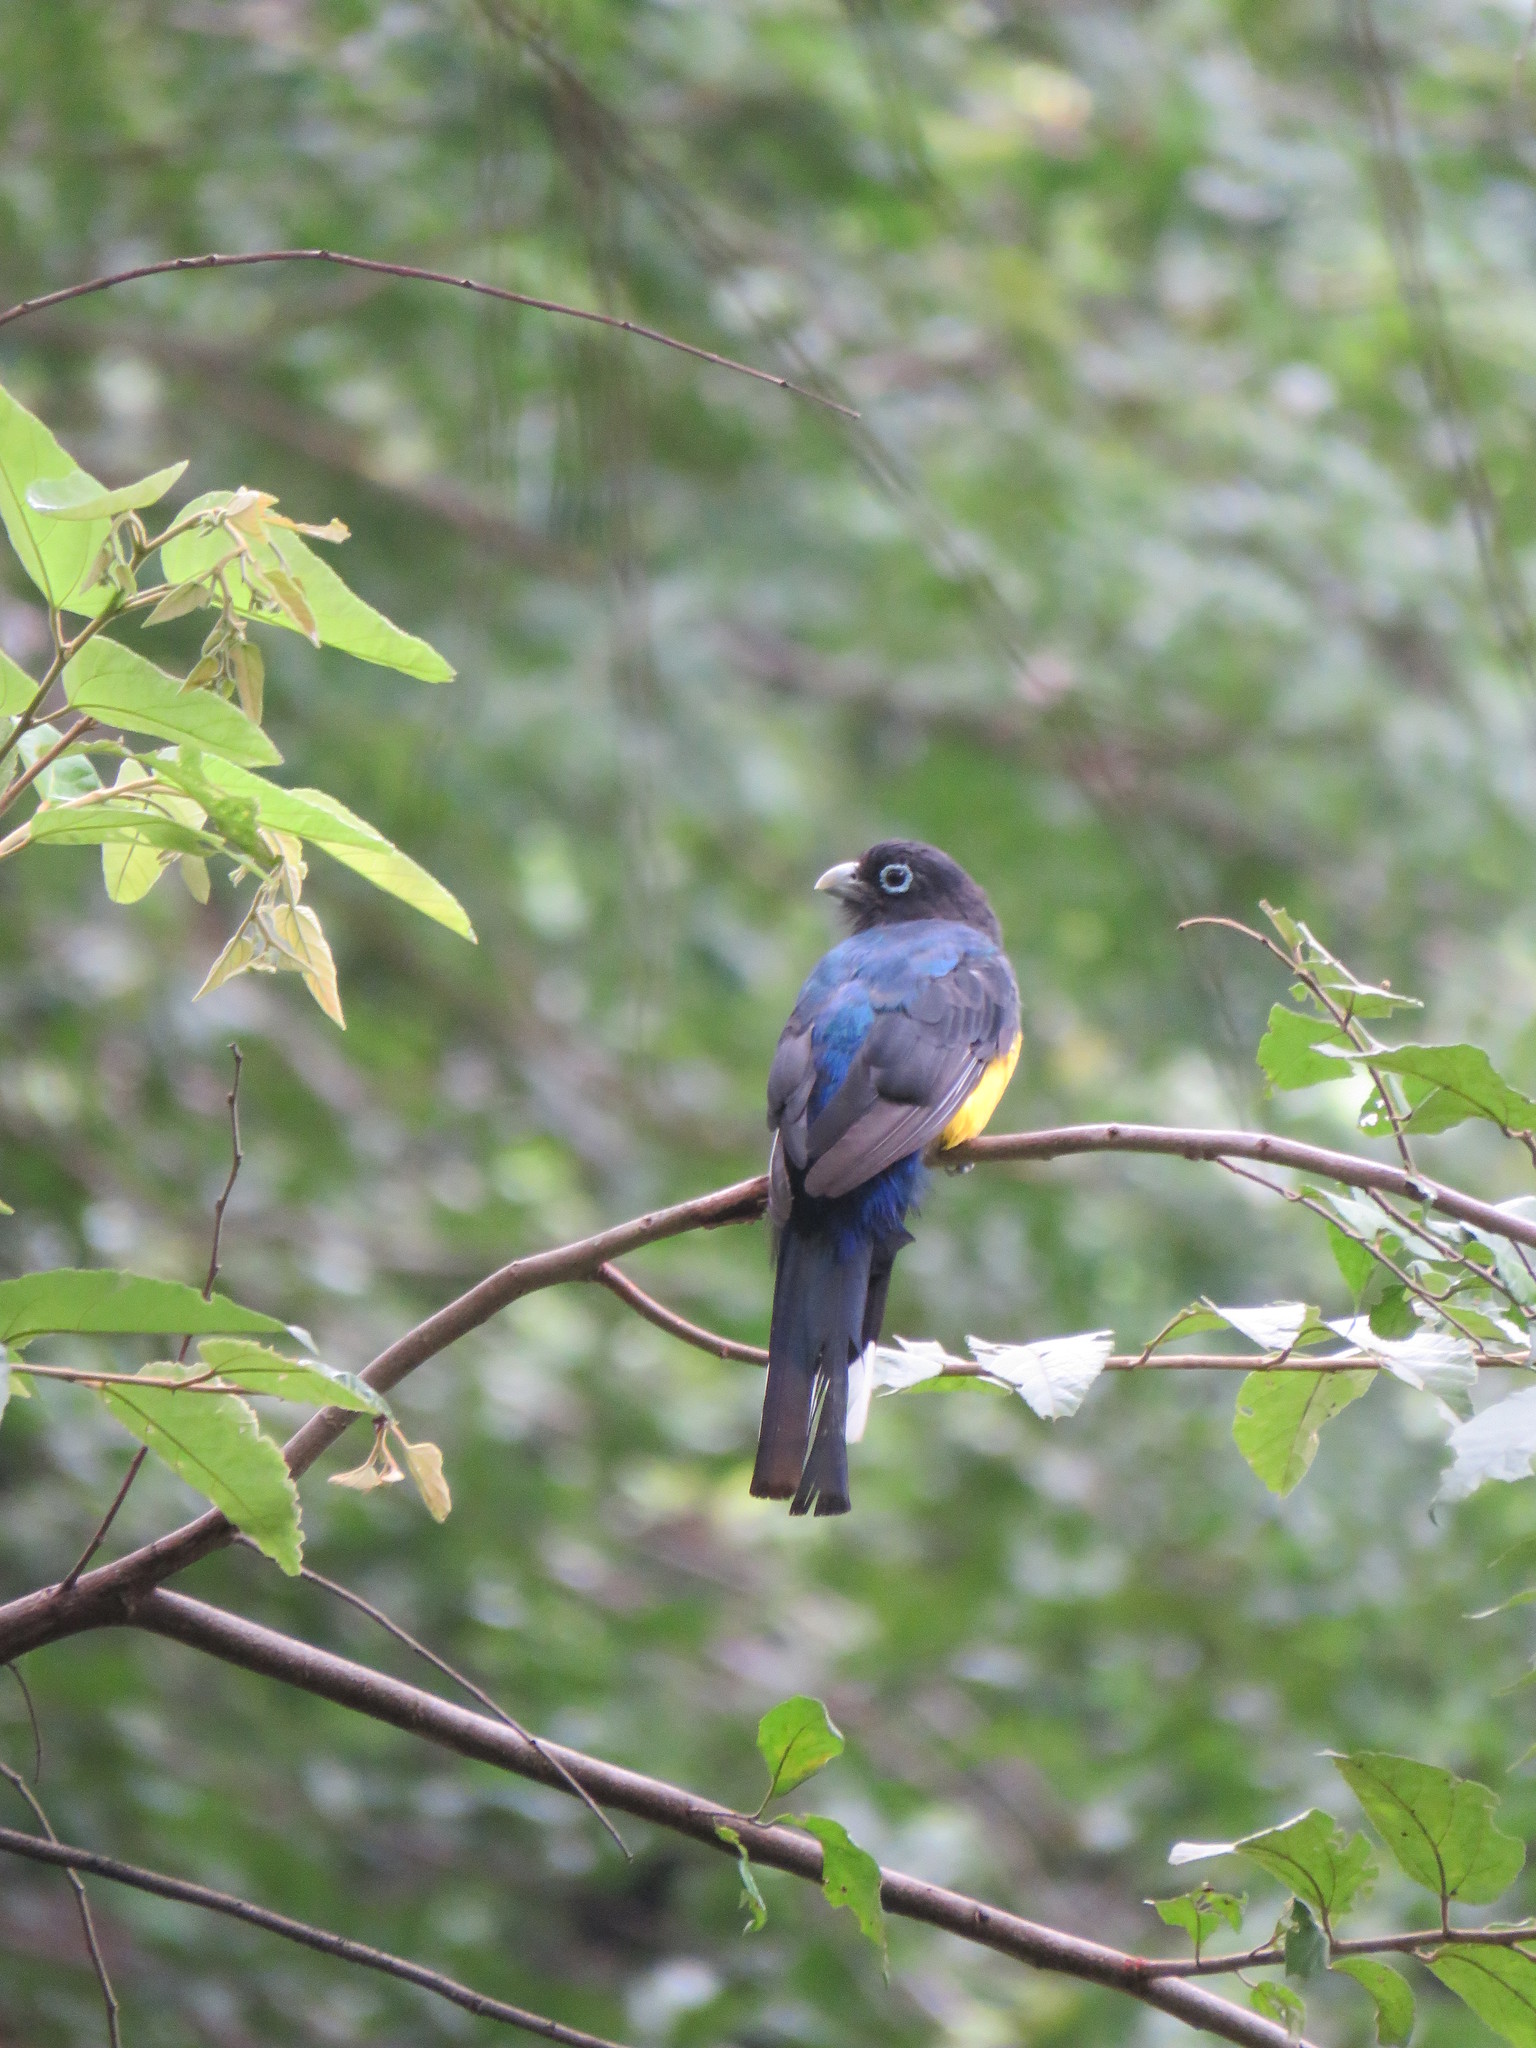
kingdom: Animalia
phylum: Chordata
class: Aves
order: Trogoniformes
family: Trogonidae
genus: Trogon
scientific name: Trogon melanocephalus
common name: Black-headed trogon
